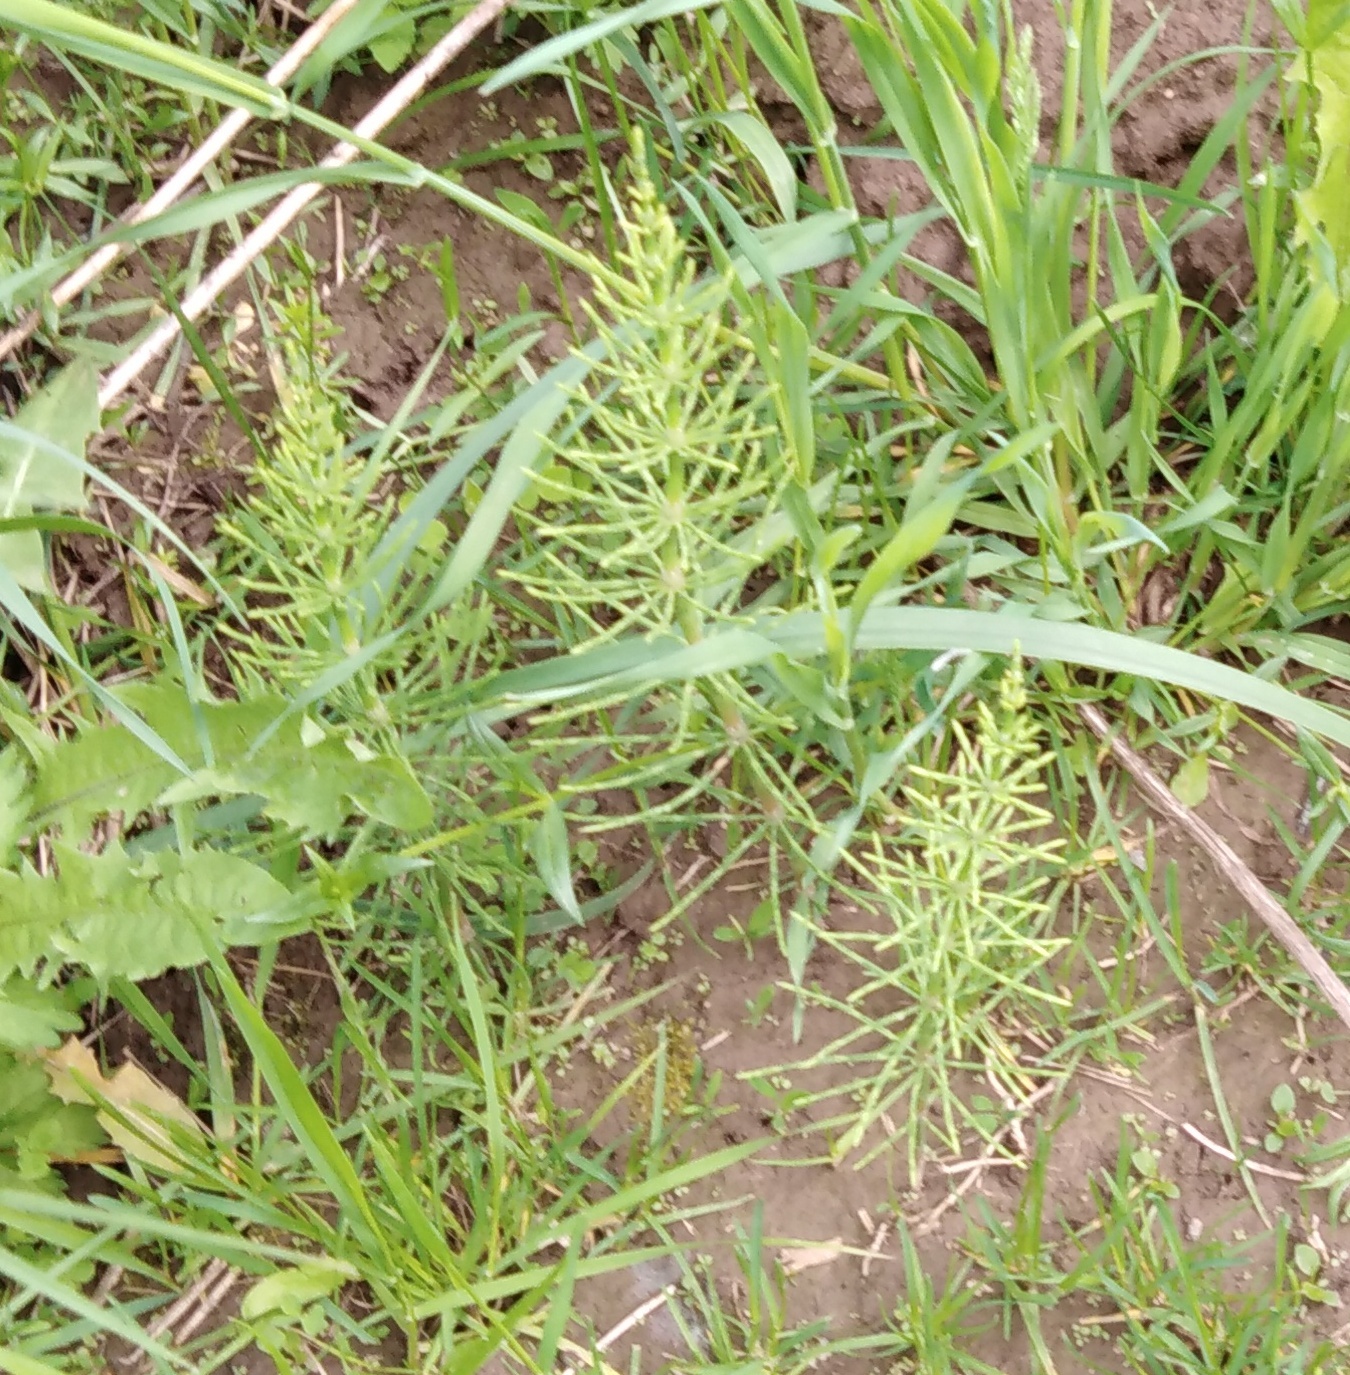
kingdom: Plantae
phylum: Tracheophyta
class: Polypodiopsida
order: Equisetales
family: Equisetaceae
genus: Equisetum
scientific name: Equisetum arvense
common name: Field horsetail
